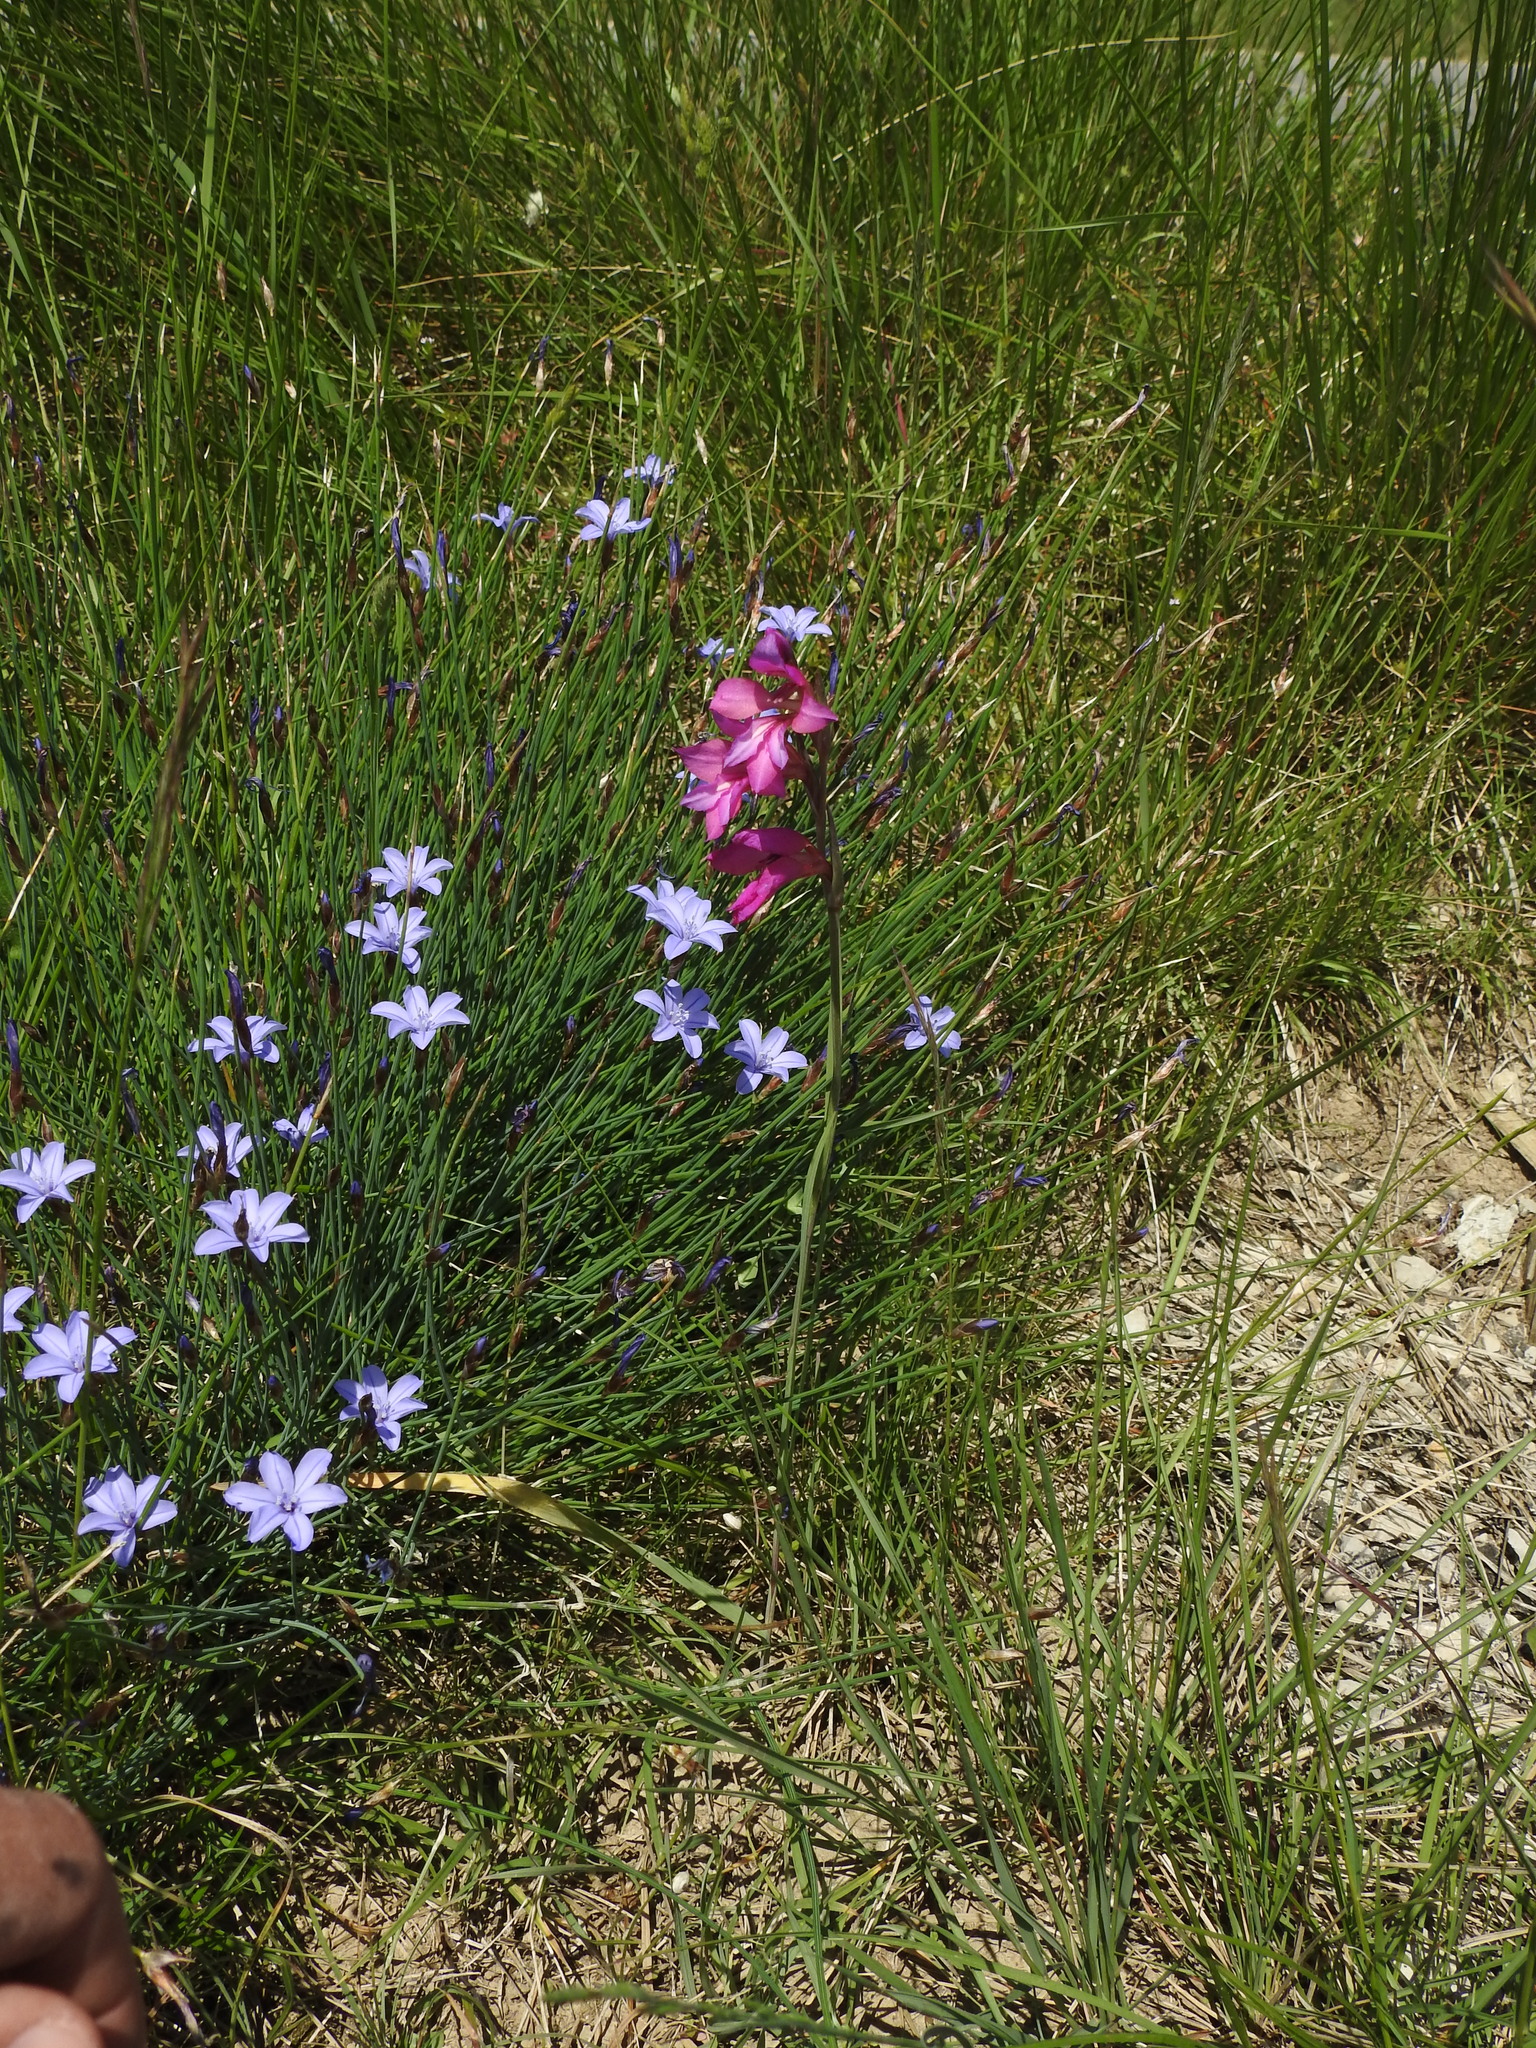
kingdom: Plantae
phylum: Tracheophyta
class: Liliopsida
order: Asparagales
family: Iridaceae
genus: Gladiolus
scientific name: Gladiolus dubius
